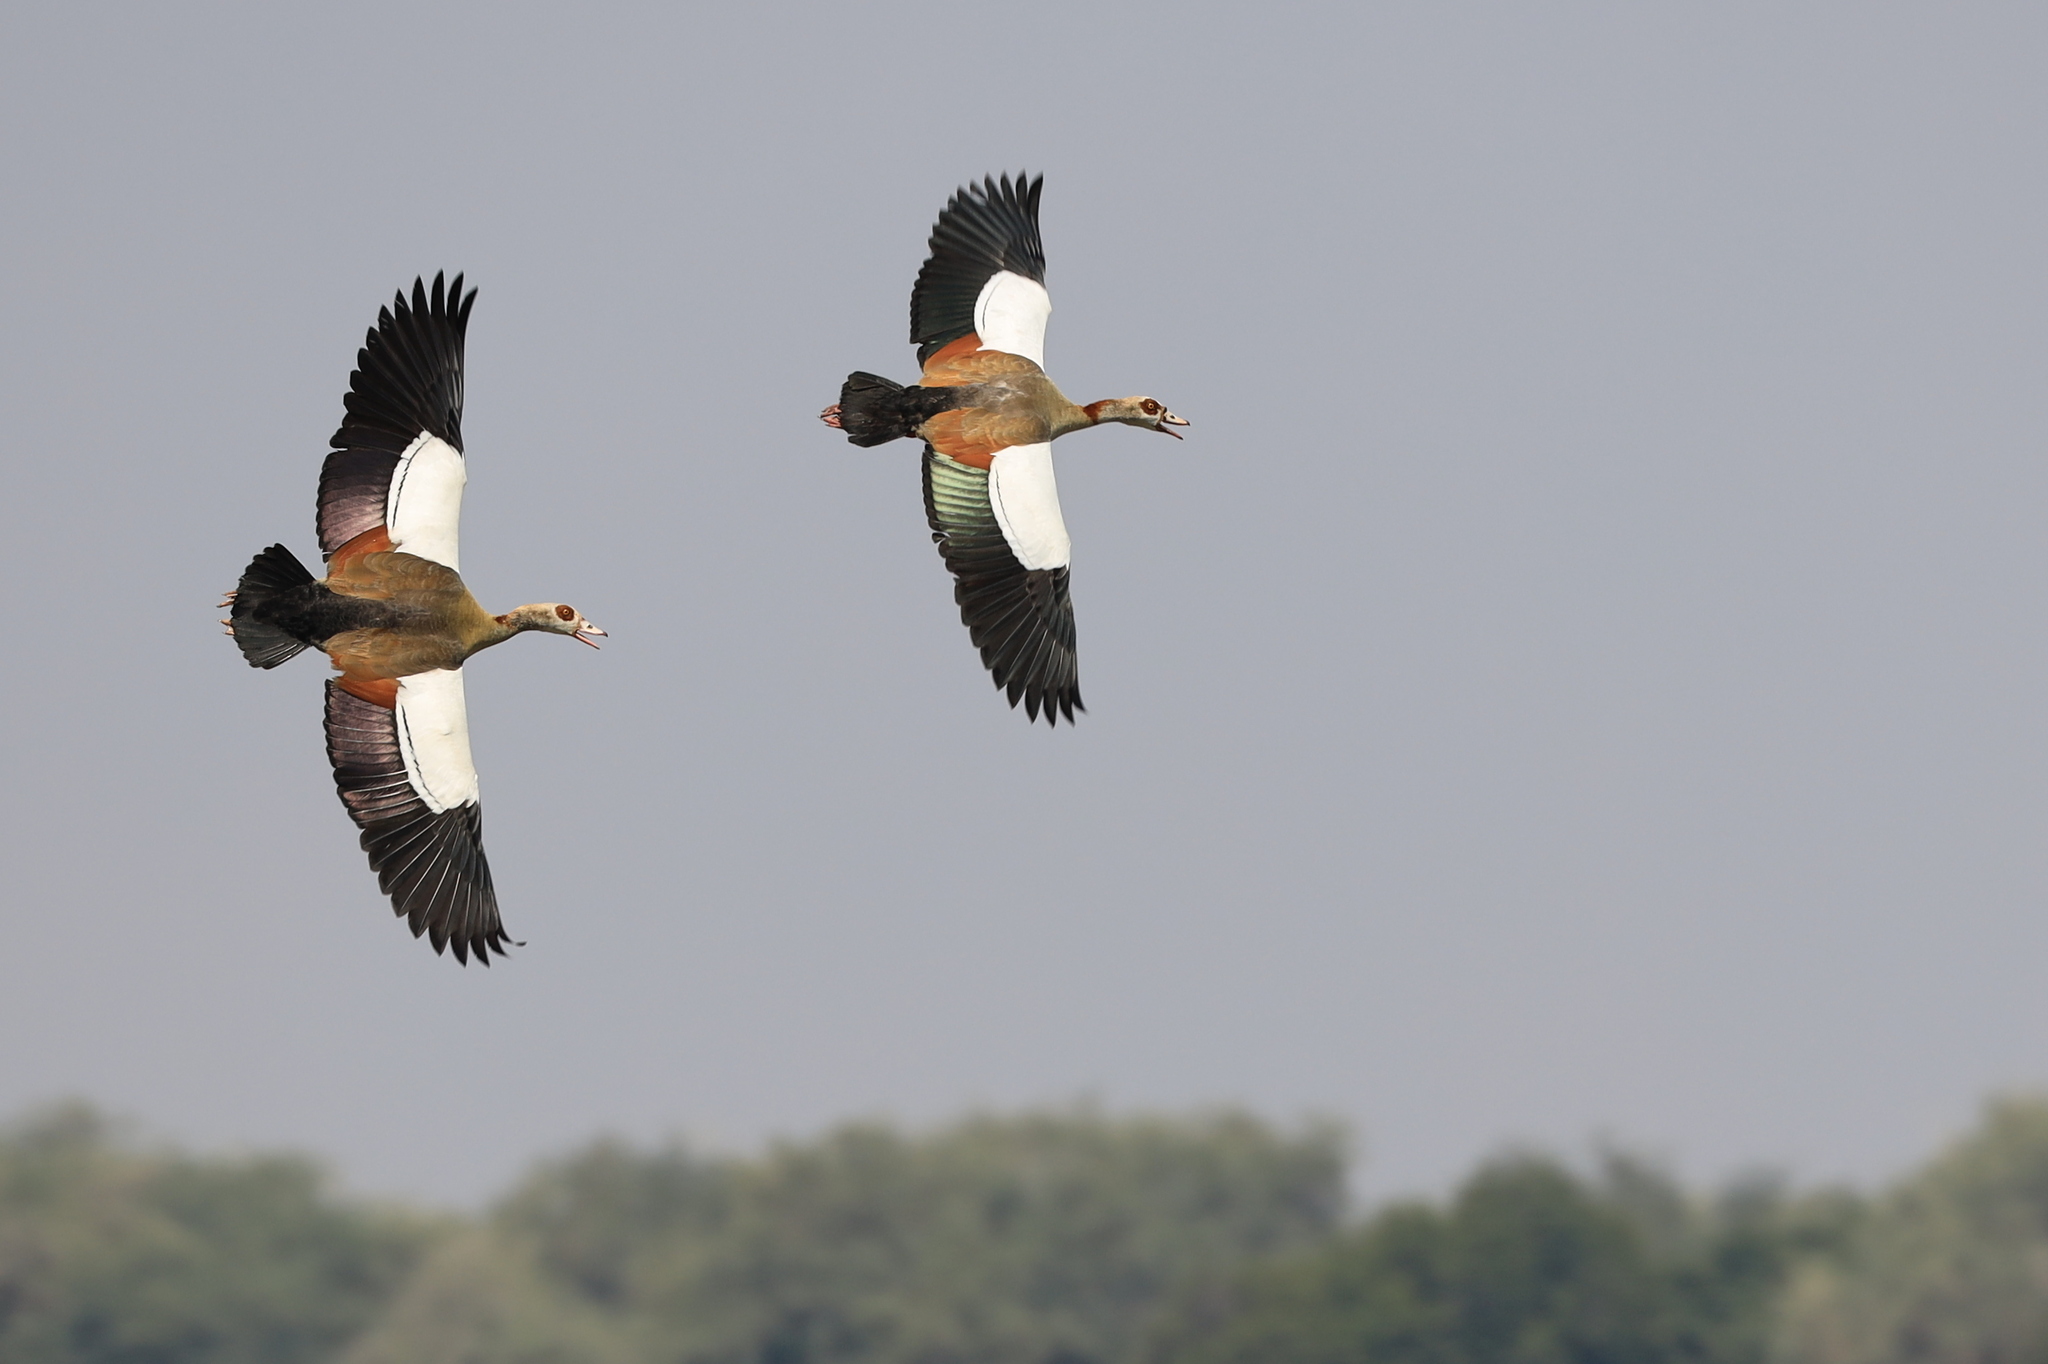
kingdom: Animalia
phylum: Chordata
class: Aves
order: Anseriformes
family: Anatidae
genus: Alopochen
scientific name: Alopochen aegyptiaca
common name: Egyptian goose
